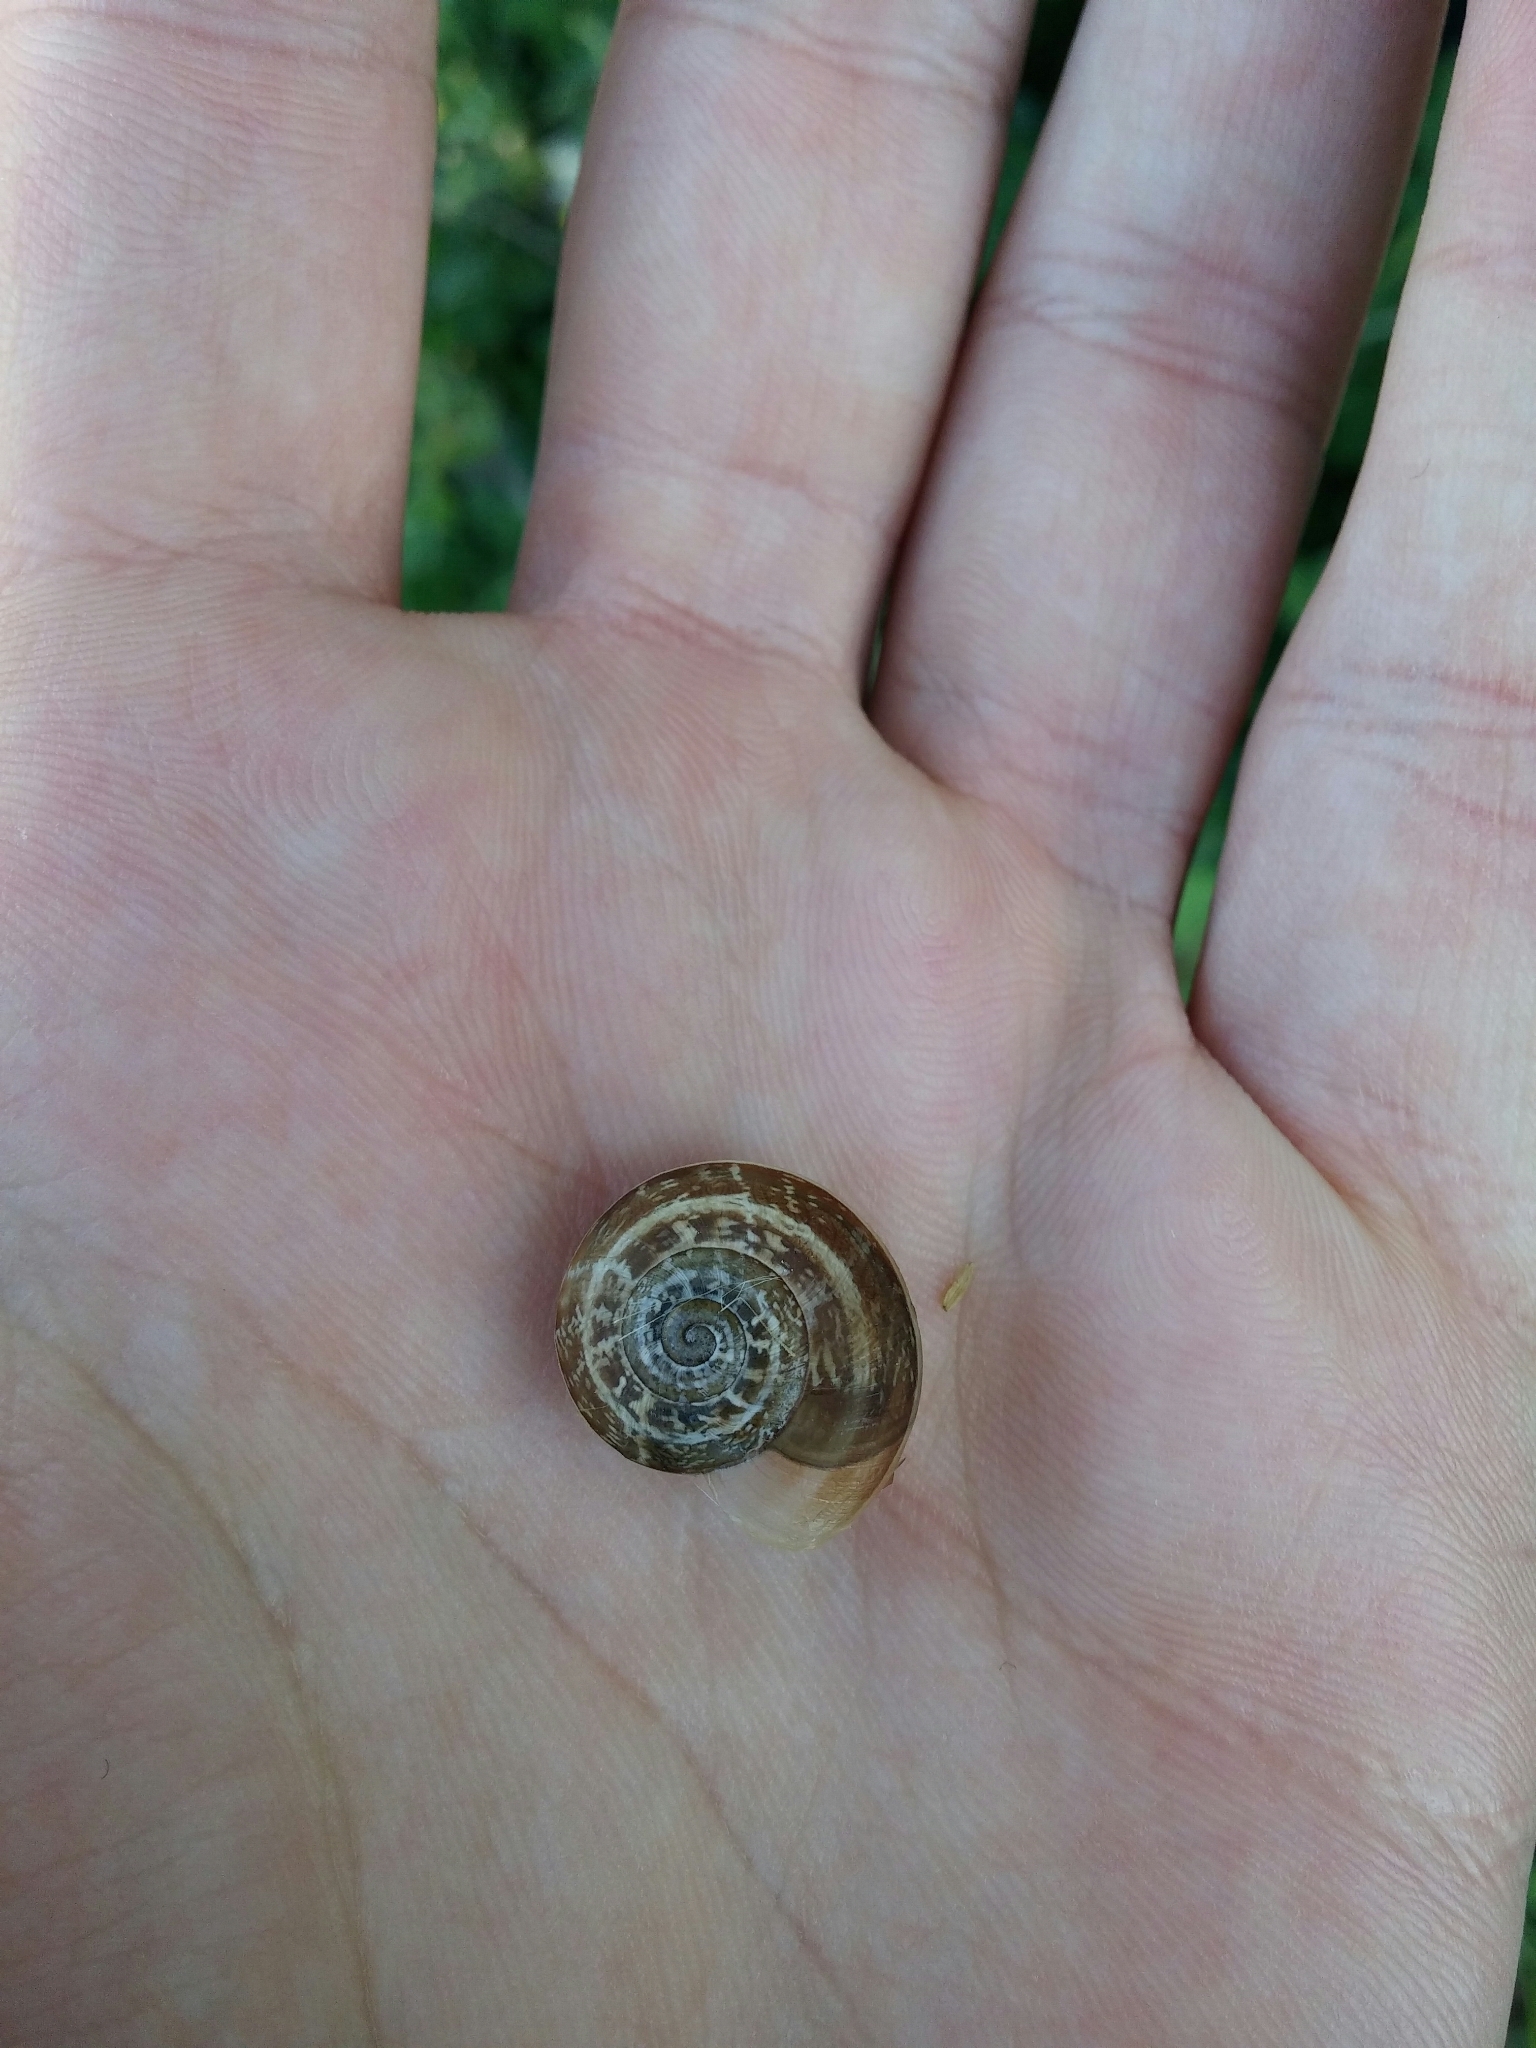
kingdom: Animalia
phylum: Mollusca
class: Gastropoda
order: Stylommatophora
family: Helicidae
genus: Eobania
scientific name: Eobania vermiculata
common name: Chocolateband snail
